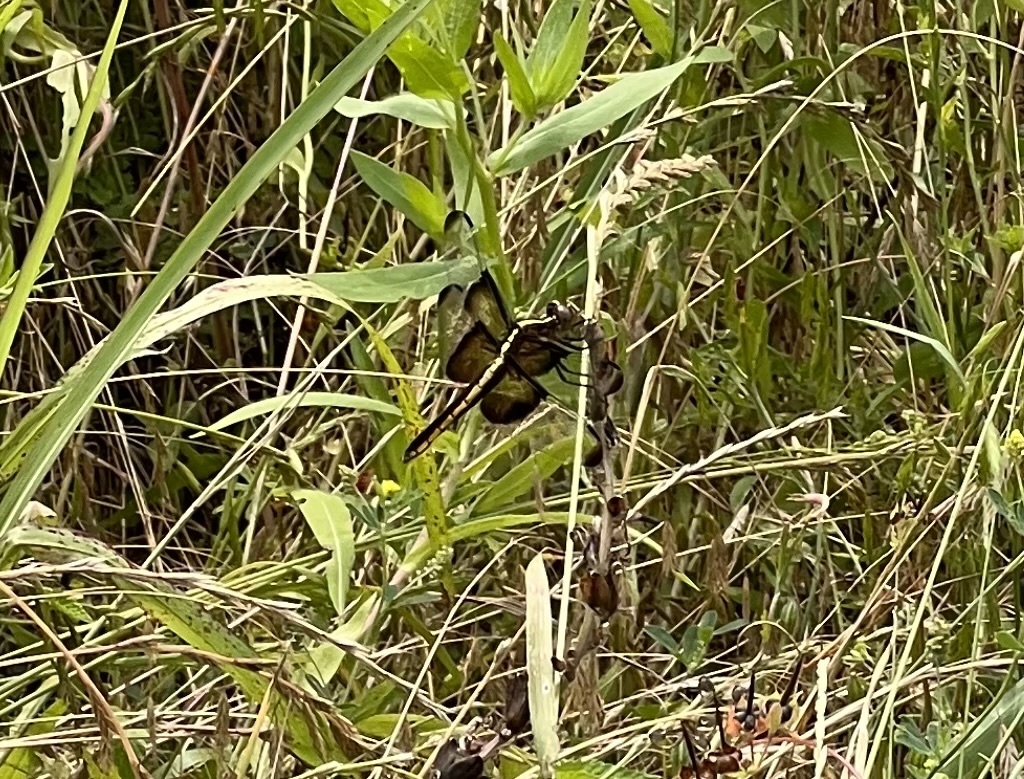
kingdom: Animalia
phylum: Arthropoda
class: Insecta
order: Odonata
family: Libellulidae
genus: Libellula
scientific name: Libellula luctuosa
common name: Widow skimmer
